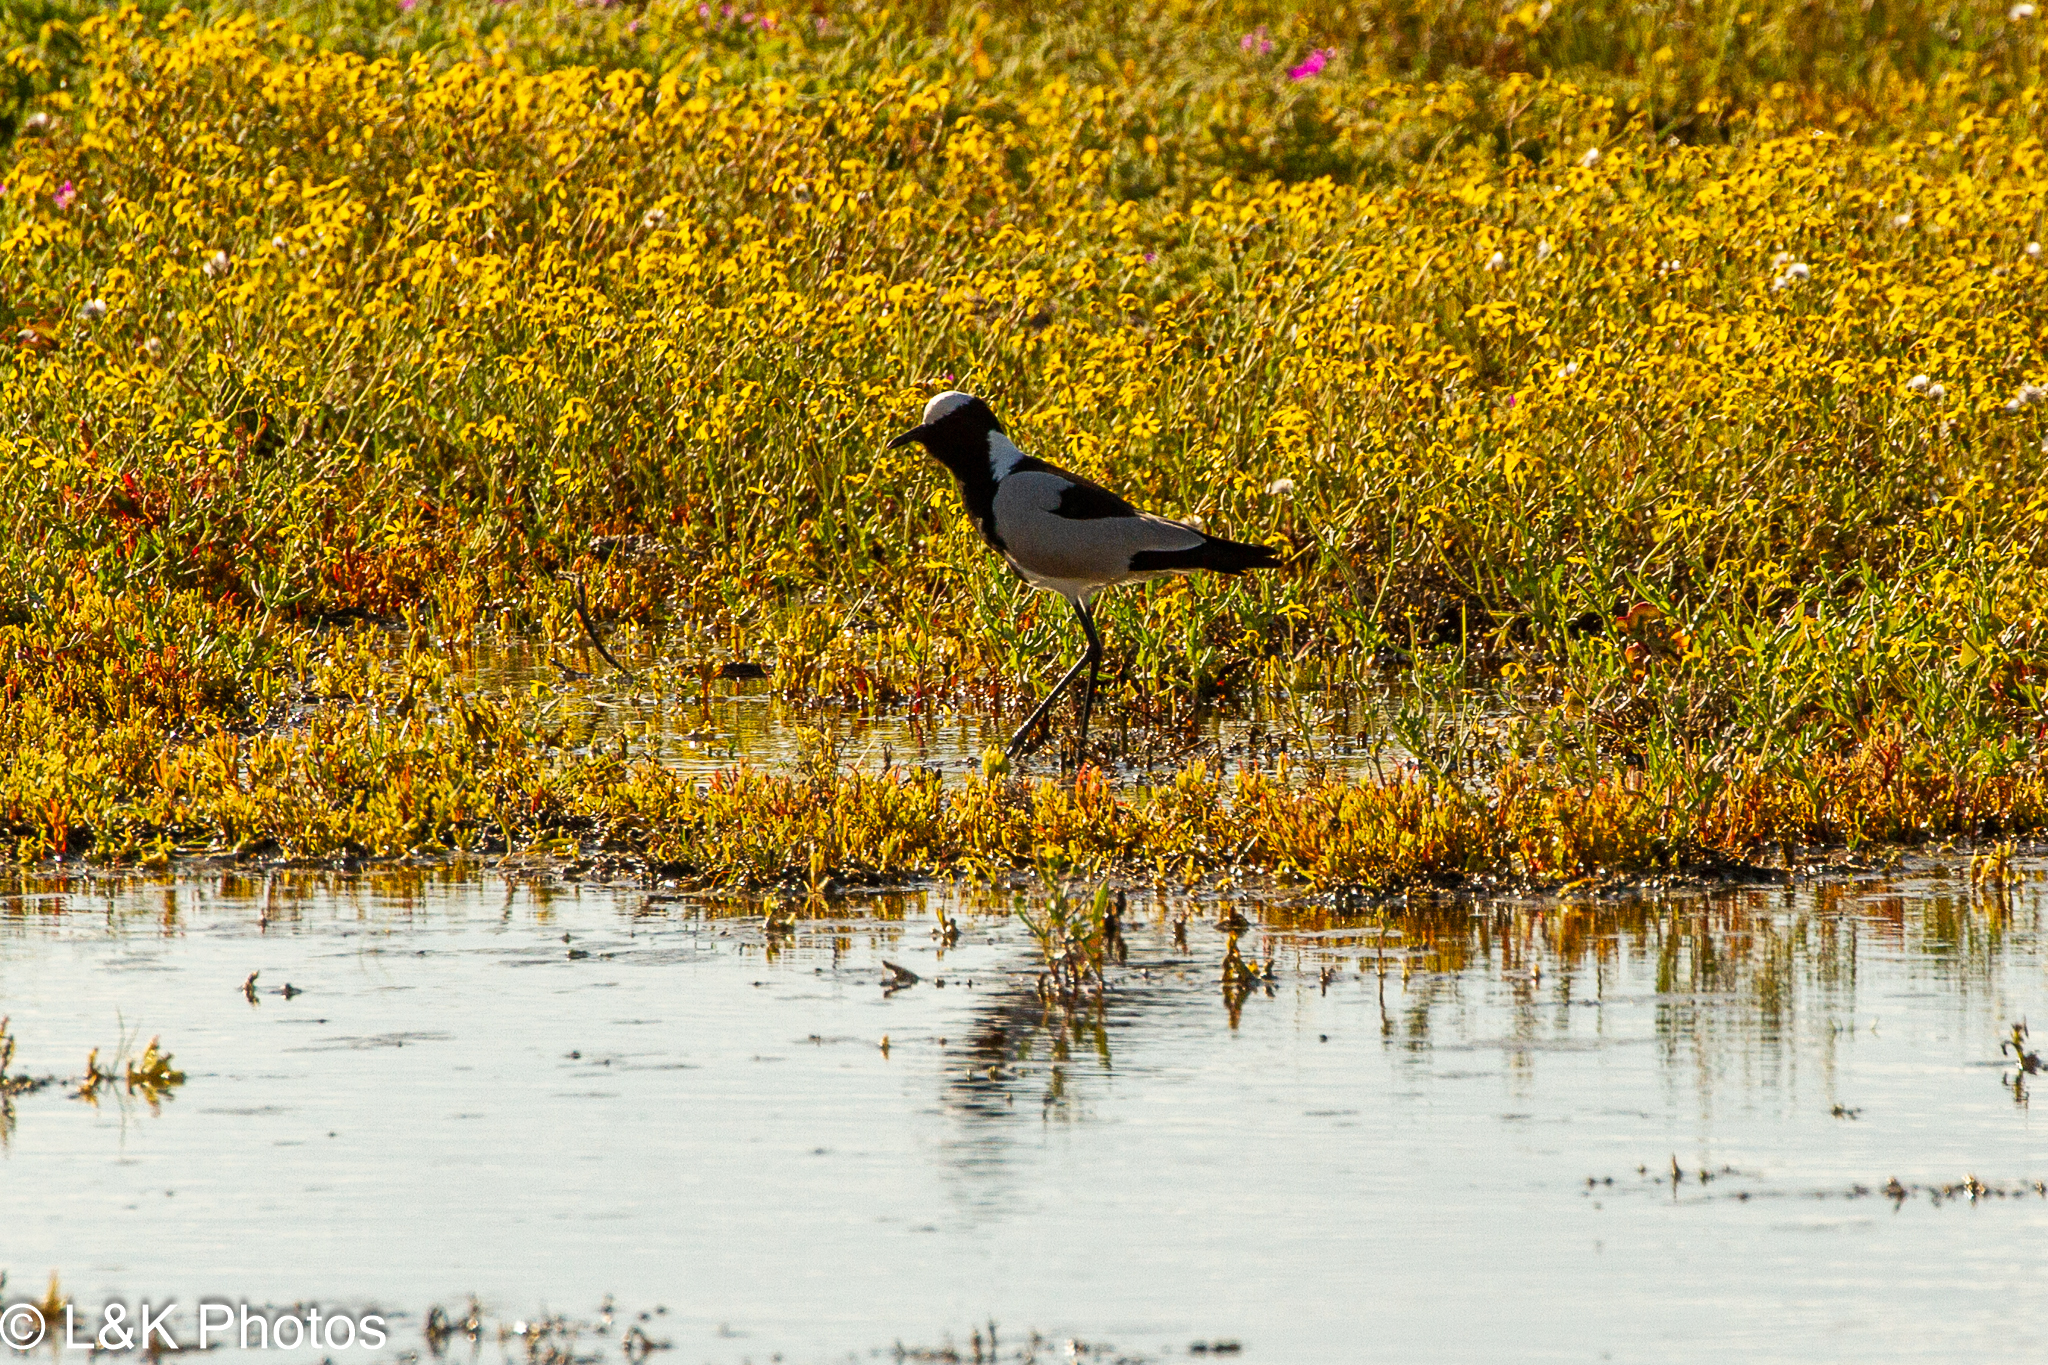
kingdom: Animalia
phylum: Chordata
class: Aves
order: Charadriiformes
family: Charadriidae
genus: Vanellus
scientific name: Vanellus armatus
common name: Blacksmith lapwing
